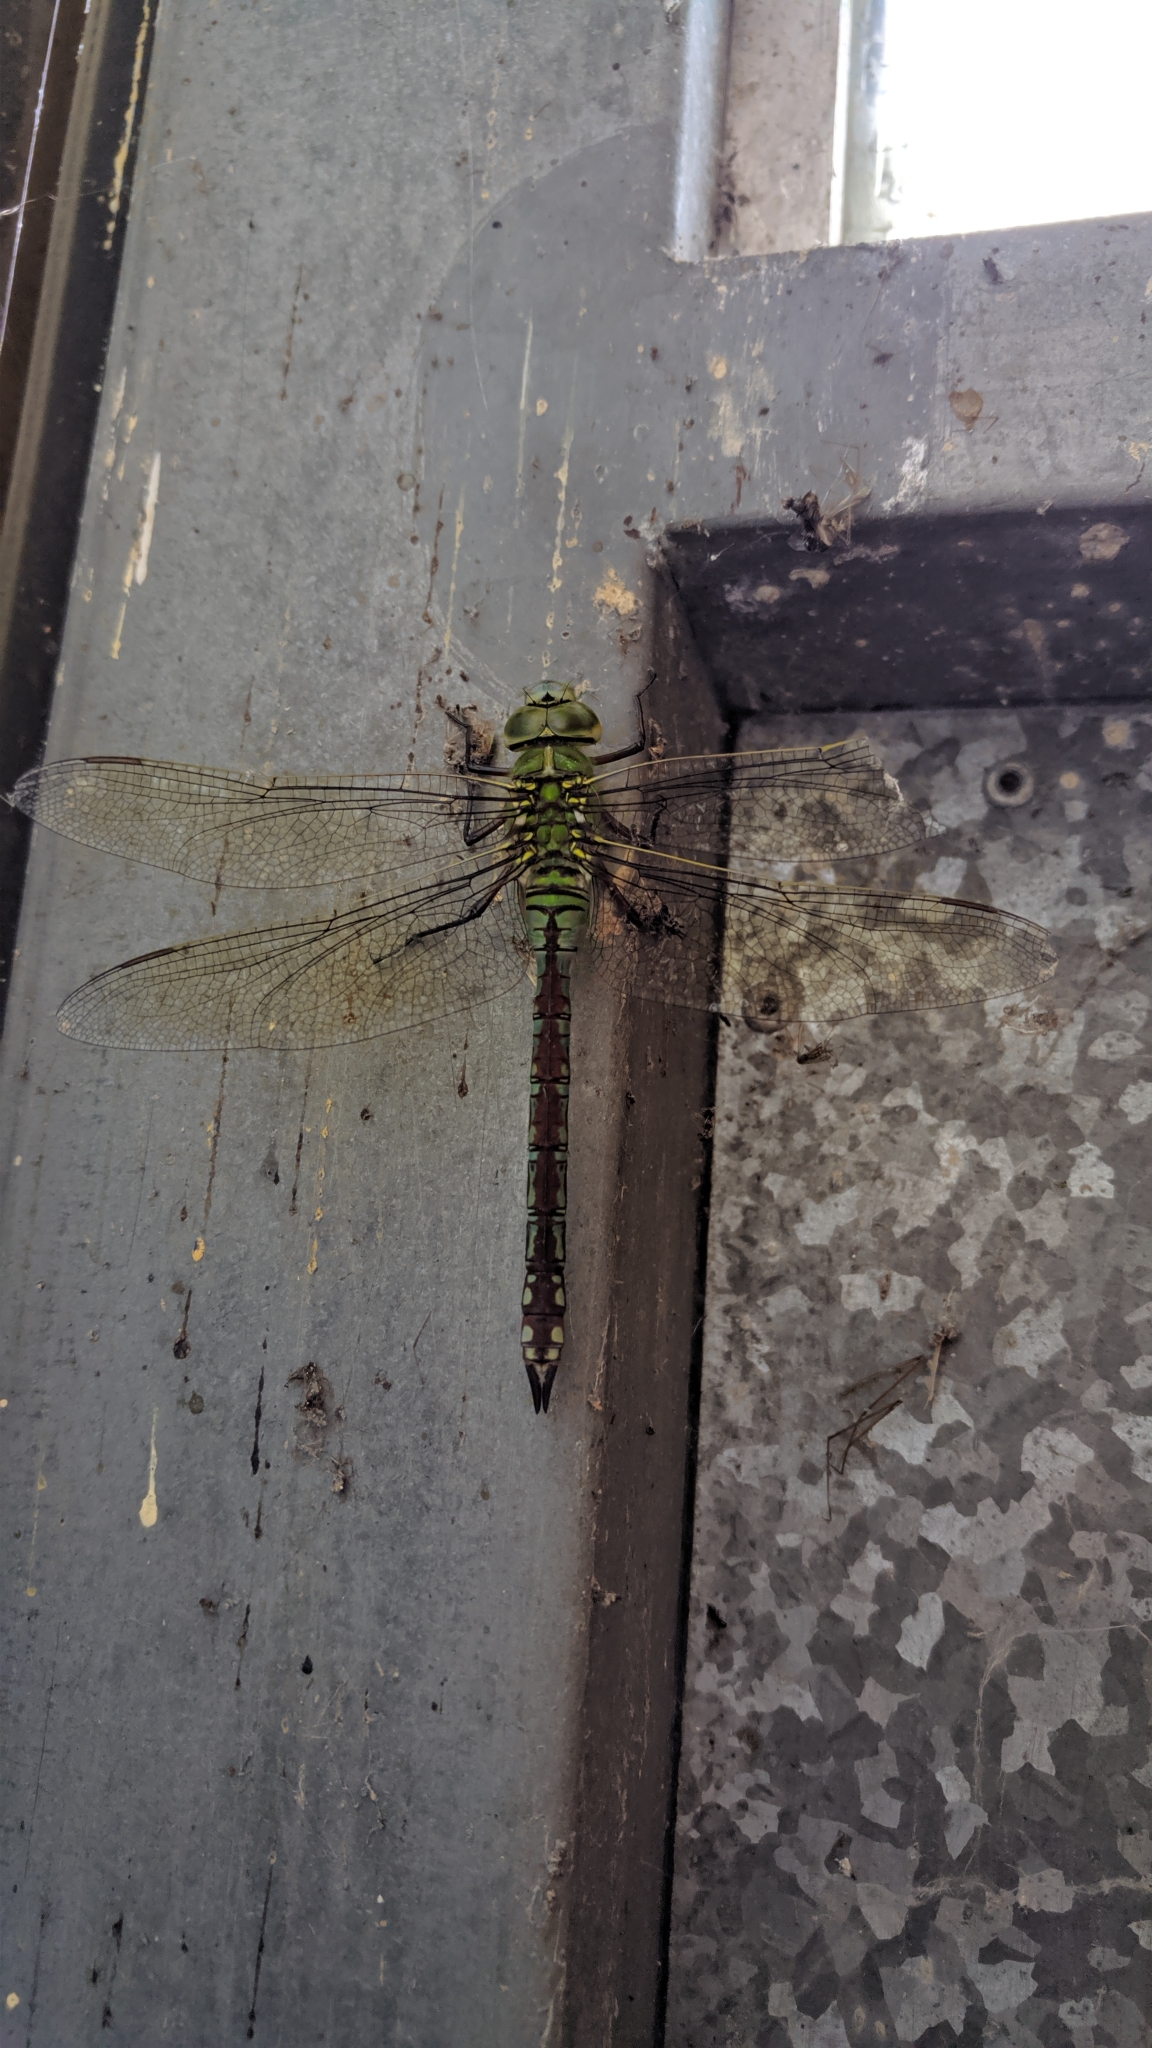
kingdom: Animalia
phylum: Arthropoda
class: Insecta
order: Odonata
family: Aeshnidae
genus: Anax
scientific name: Anax imperator
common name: Emperor dragonfly
